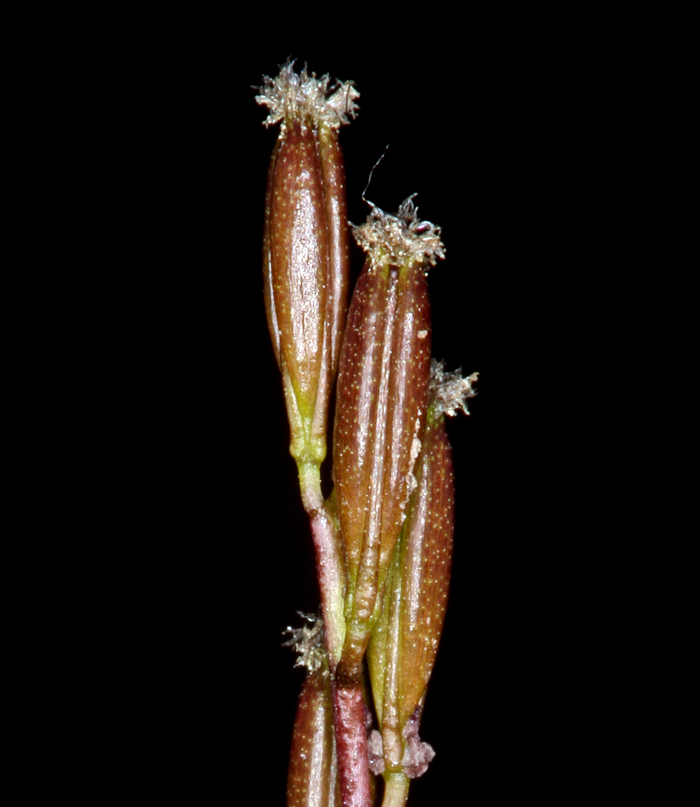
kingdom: Plantae
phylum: Tracheophyta
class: Liliopsida
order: Alismatales
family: Juncaginaceae
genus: Triglochin
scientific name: Triglochin palustris
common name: Marsh arrowgrass
